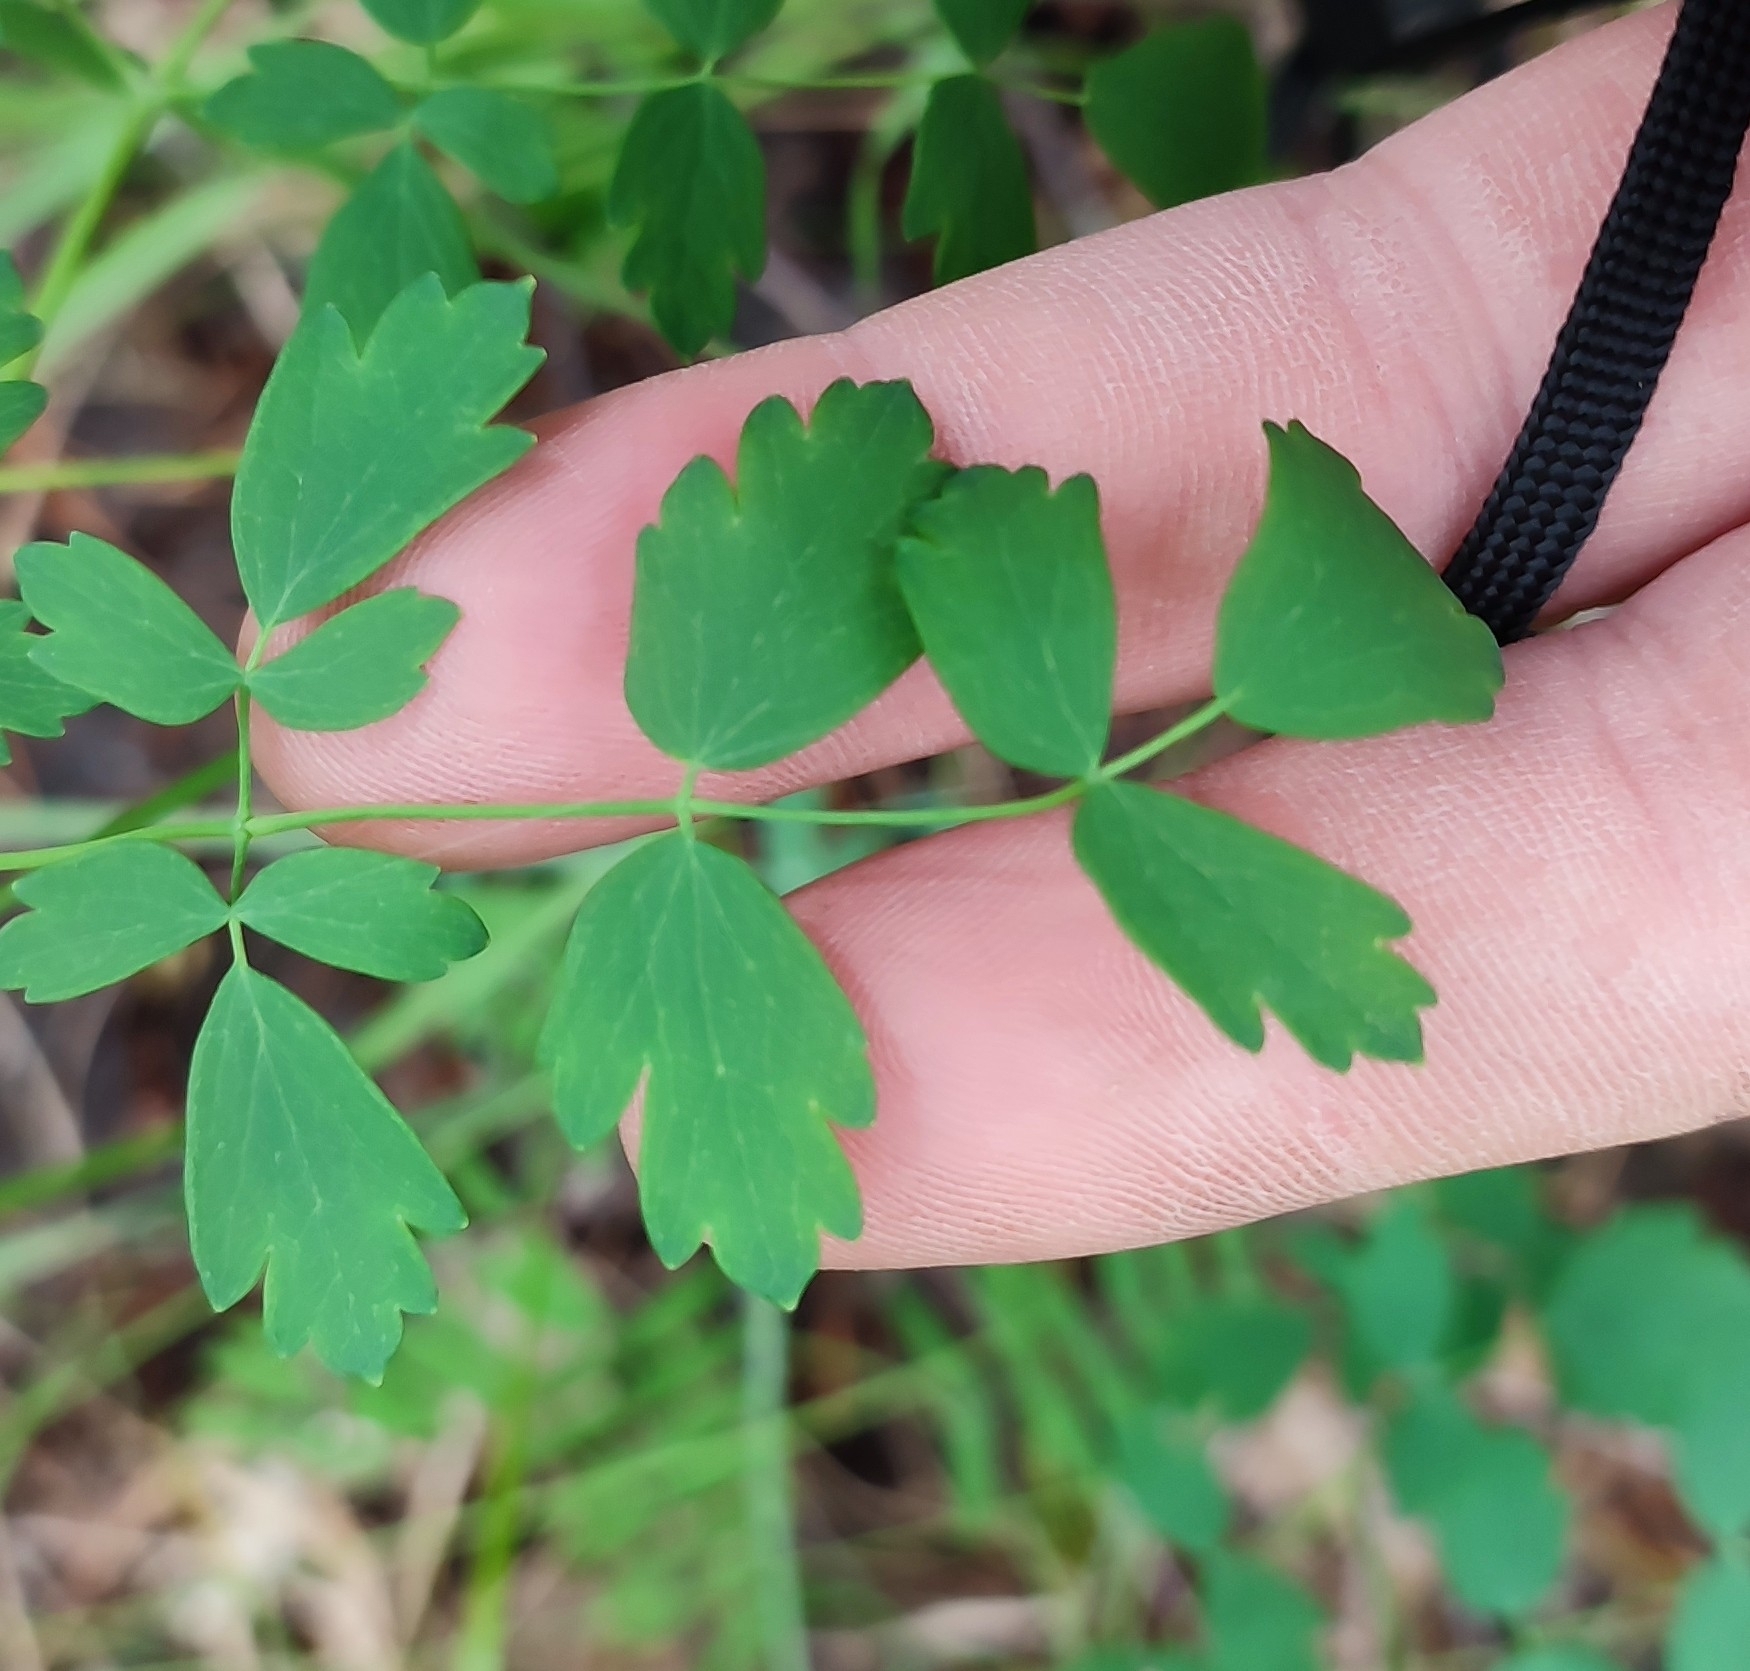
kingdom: Plantae
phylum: Tracheophyta
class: Magnoliopsida
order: Ranunculales
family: Ranunculaceae
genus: Thalictrum
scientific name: Thalictrum minus
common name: Lesser meadow-rue
